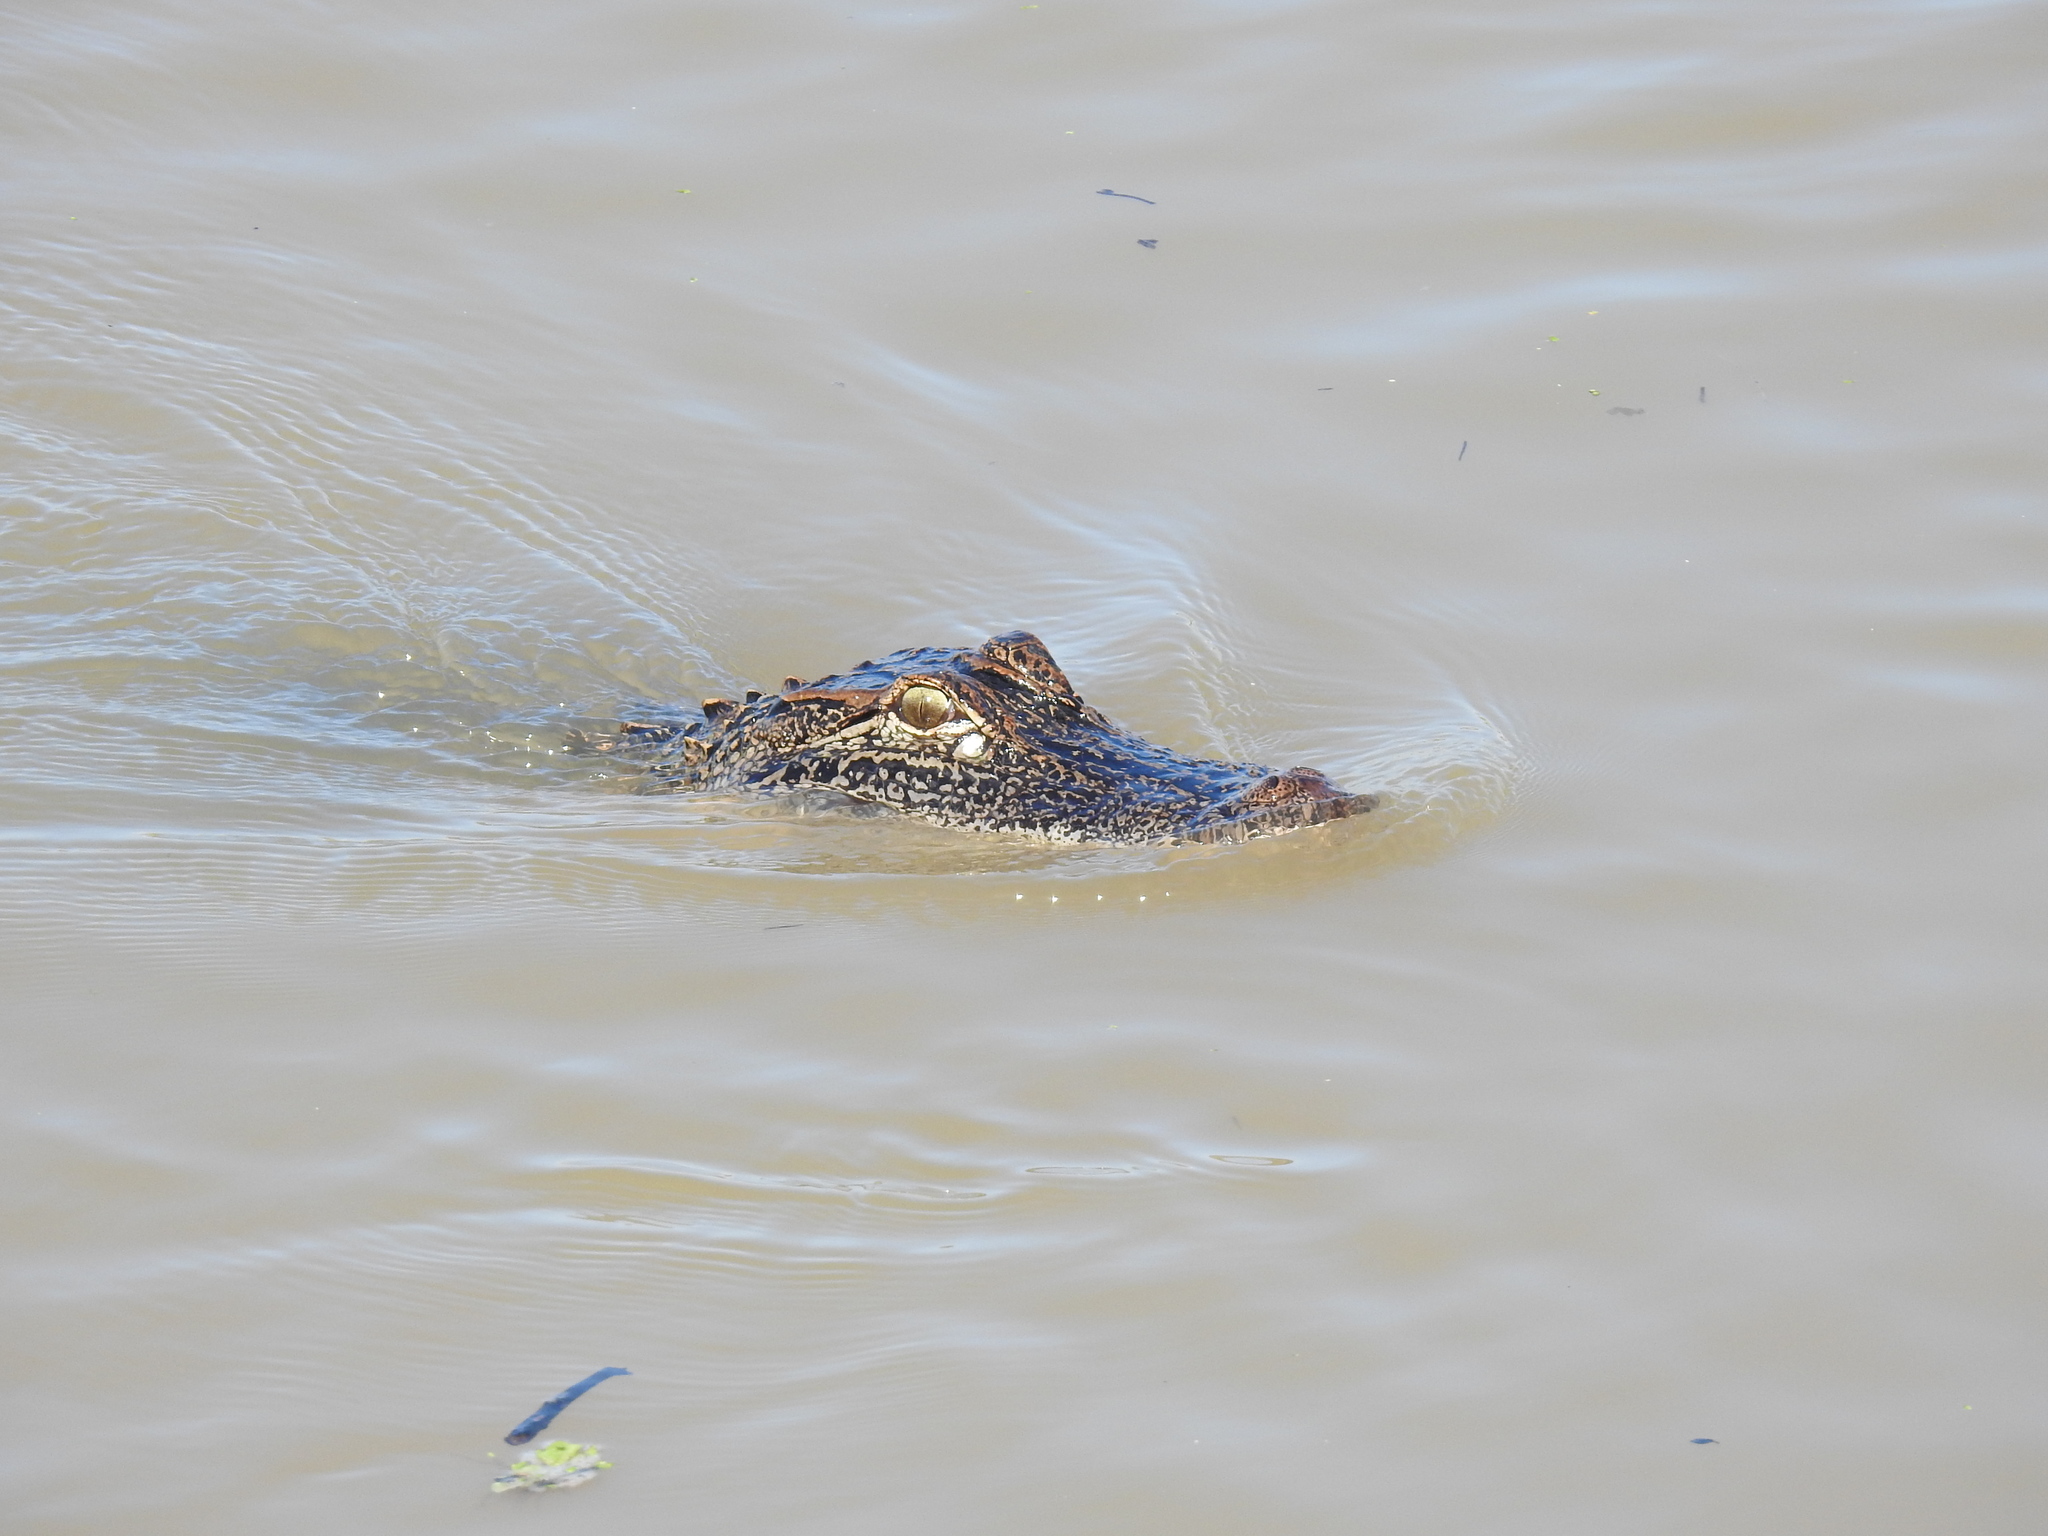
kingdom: Animalia
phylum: Chordata
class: Crocodylia
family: Alligatoridae
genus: Alligator
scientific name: Alligator mississippiensis
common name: American alligator
